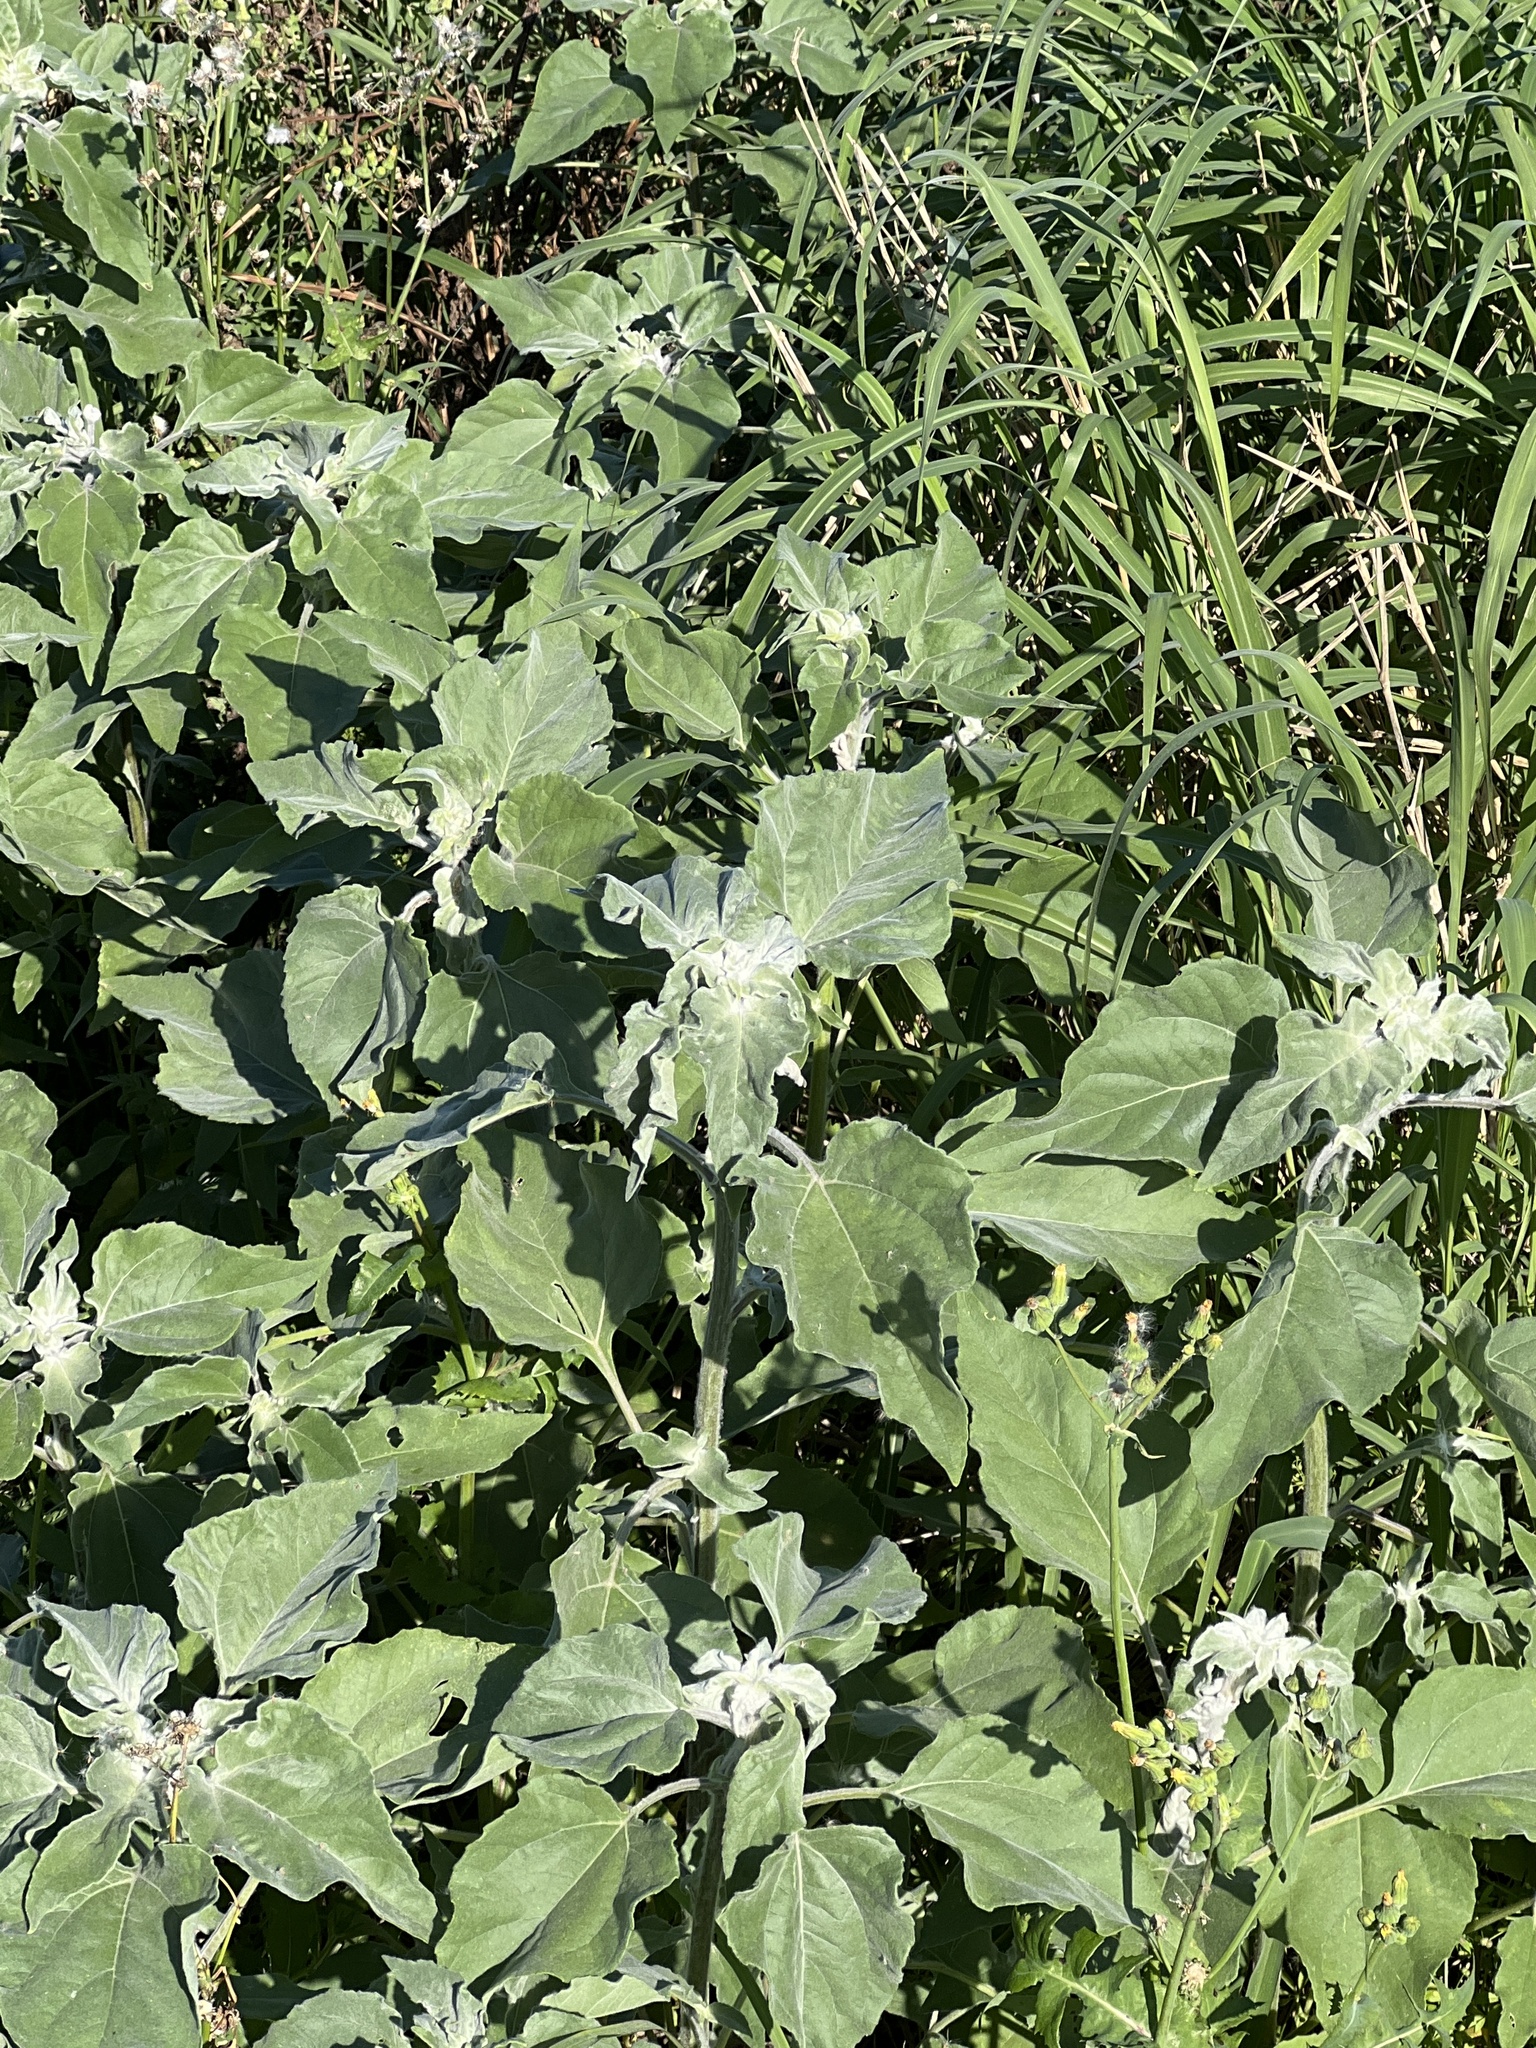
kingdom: Plantae
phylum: Tracheophyta
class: Magnoliopsida
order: Asterales
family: Asteraceae
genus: Helianthus
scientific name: Helianthus argophyllus
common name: Silverleaf sunflower
